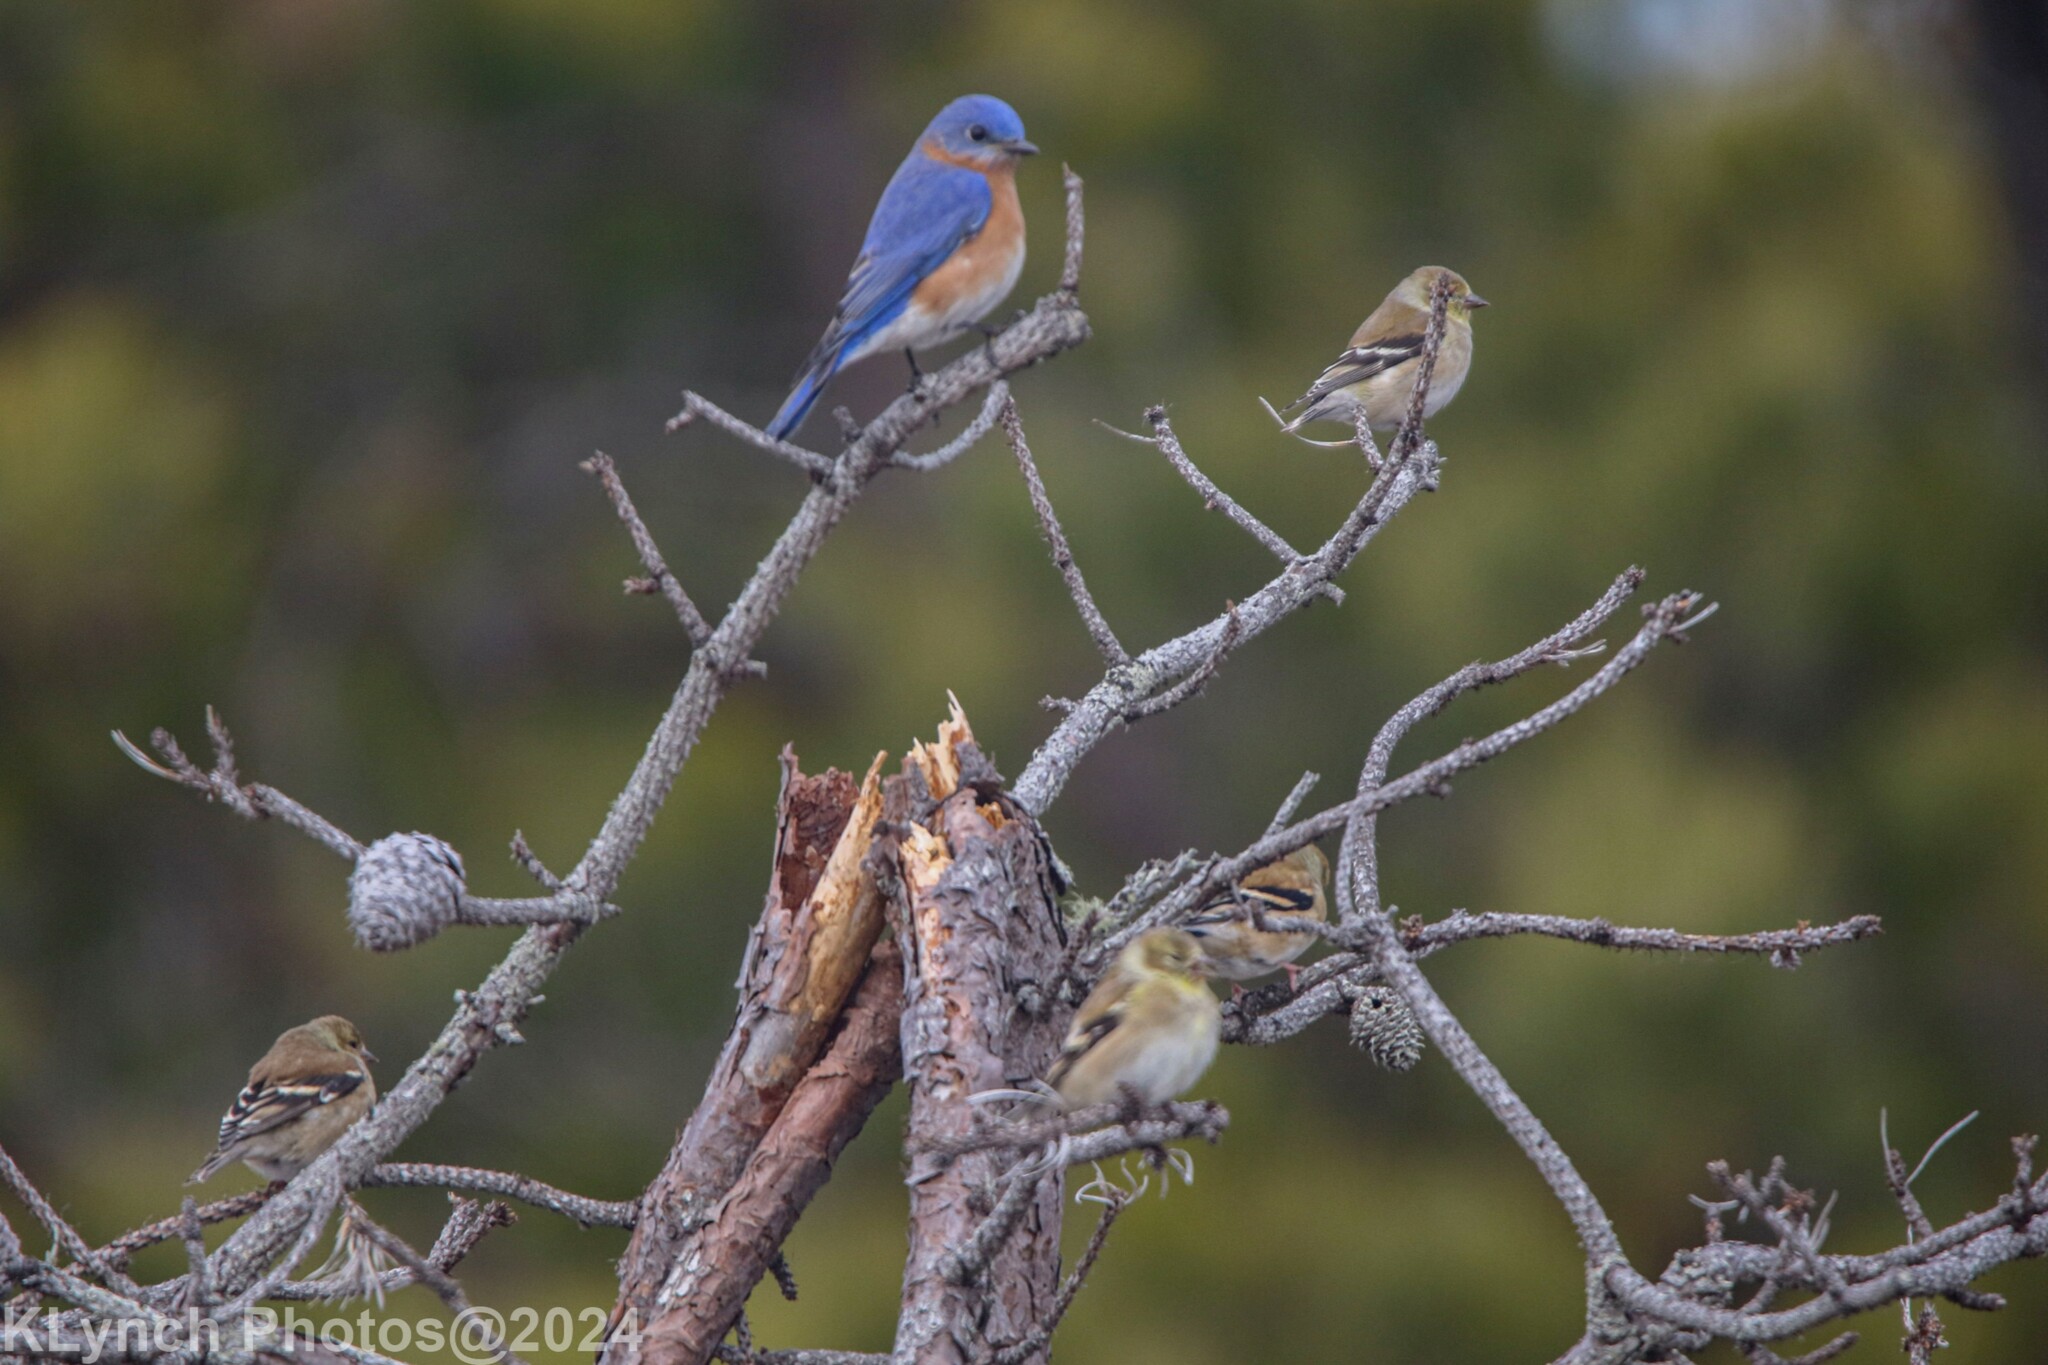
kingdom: Animalia
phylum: Chordata
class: Aves
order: Passeriformes
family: Fringillidae
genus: Spinus
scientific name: Spinus tristis
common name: American goldfinch
